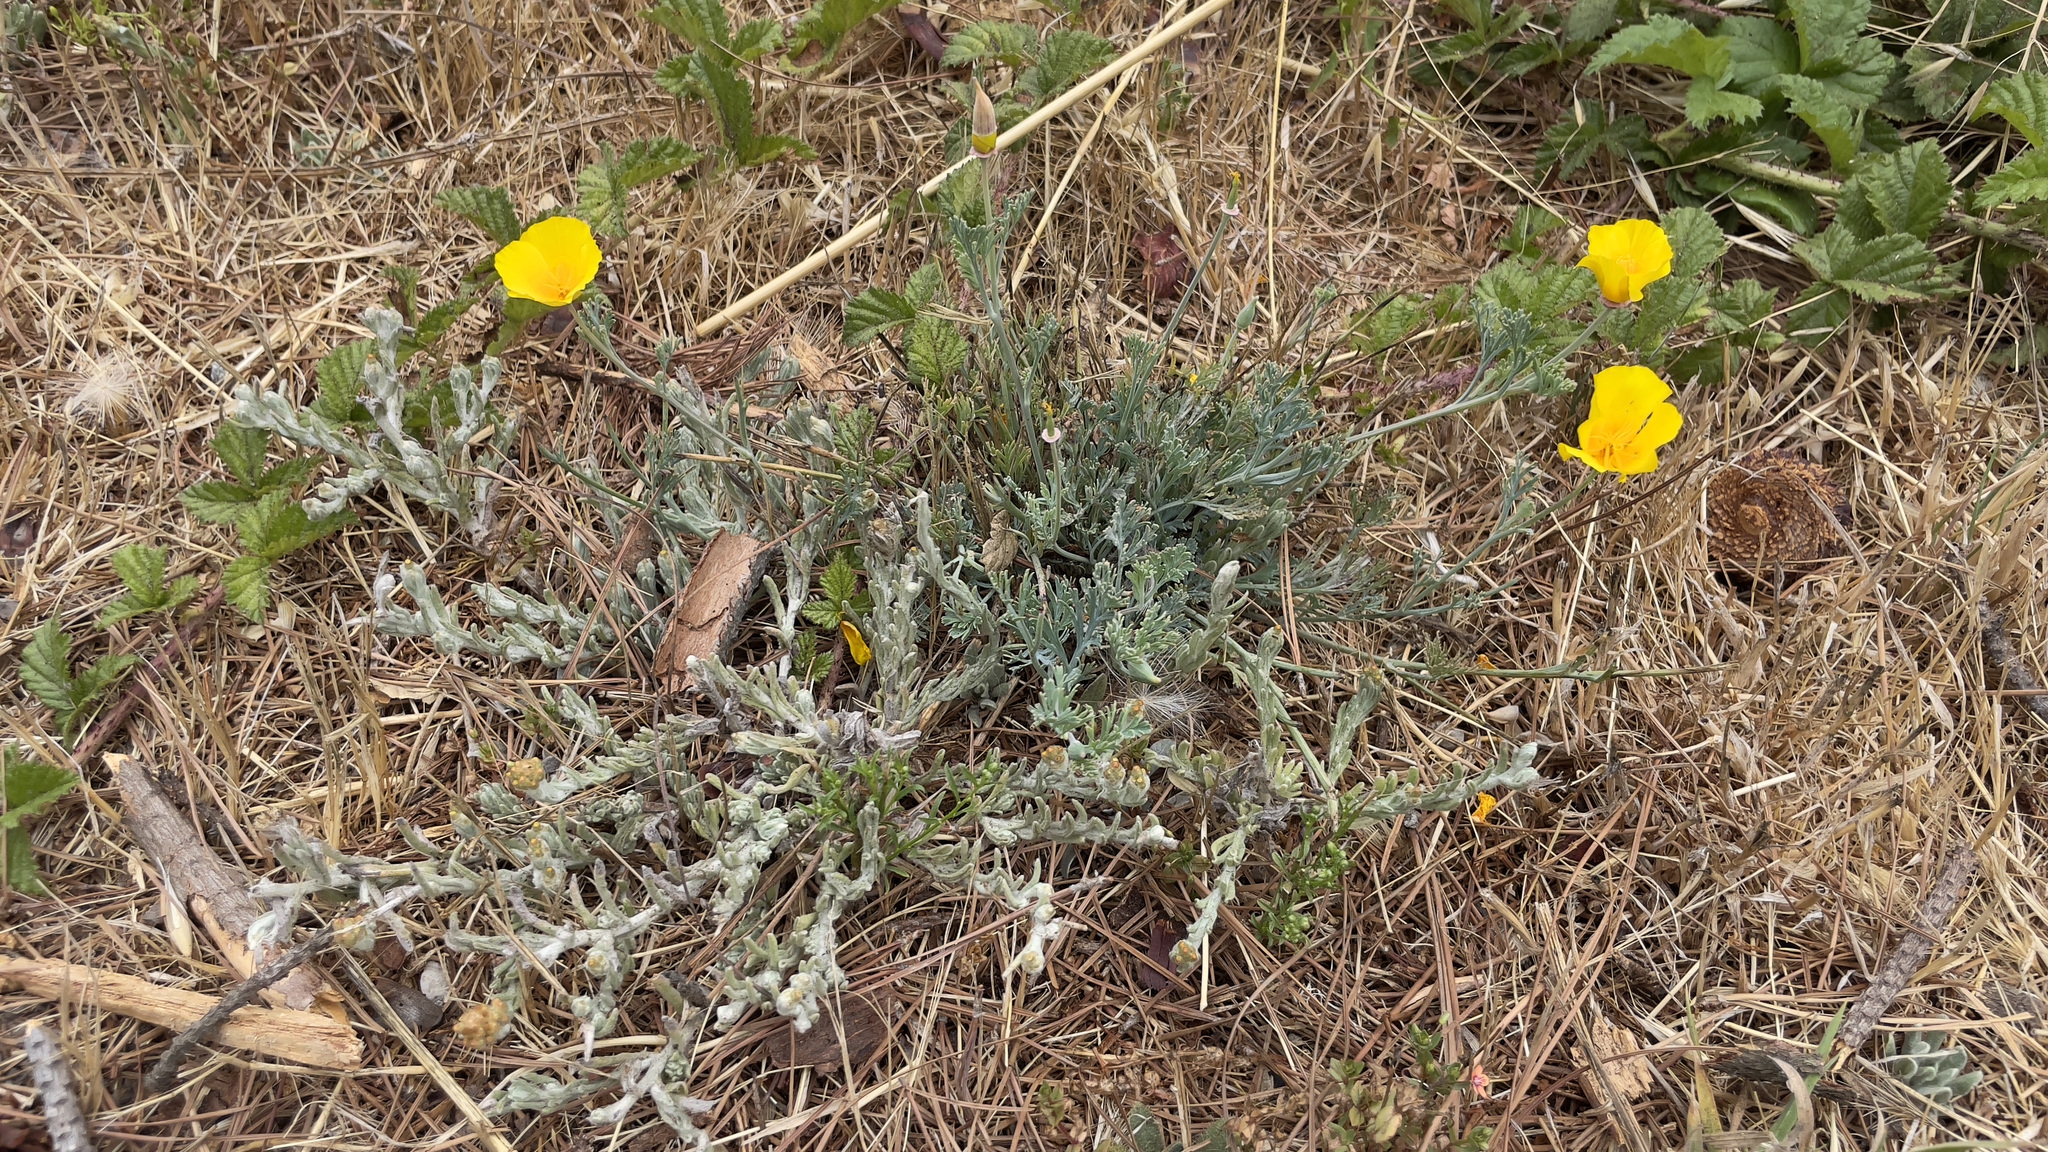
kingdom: Plantae
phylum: Tracheophyta
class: Magnoliopsida
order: Ranunculales
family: Papaveraceae
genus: Eschscholzia
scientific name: Eschscholzia californica
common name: California poppy
